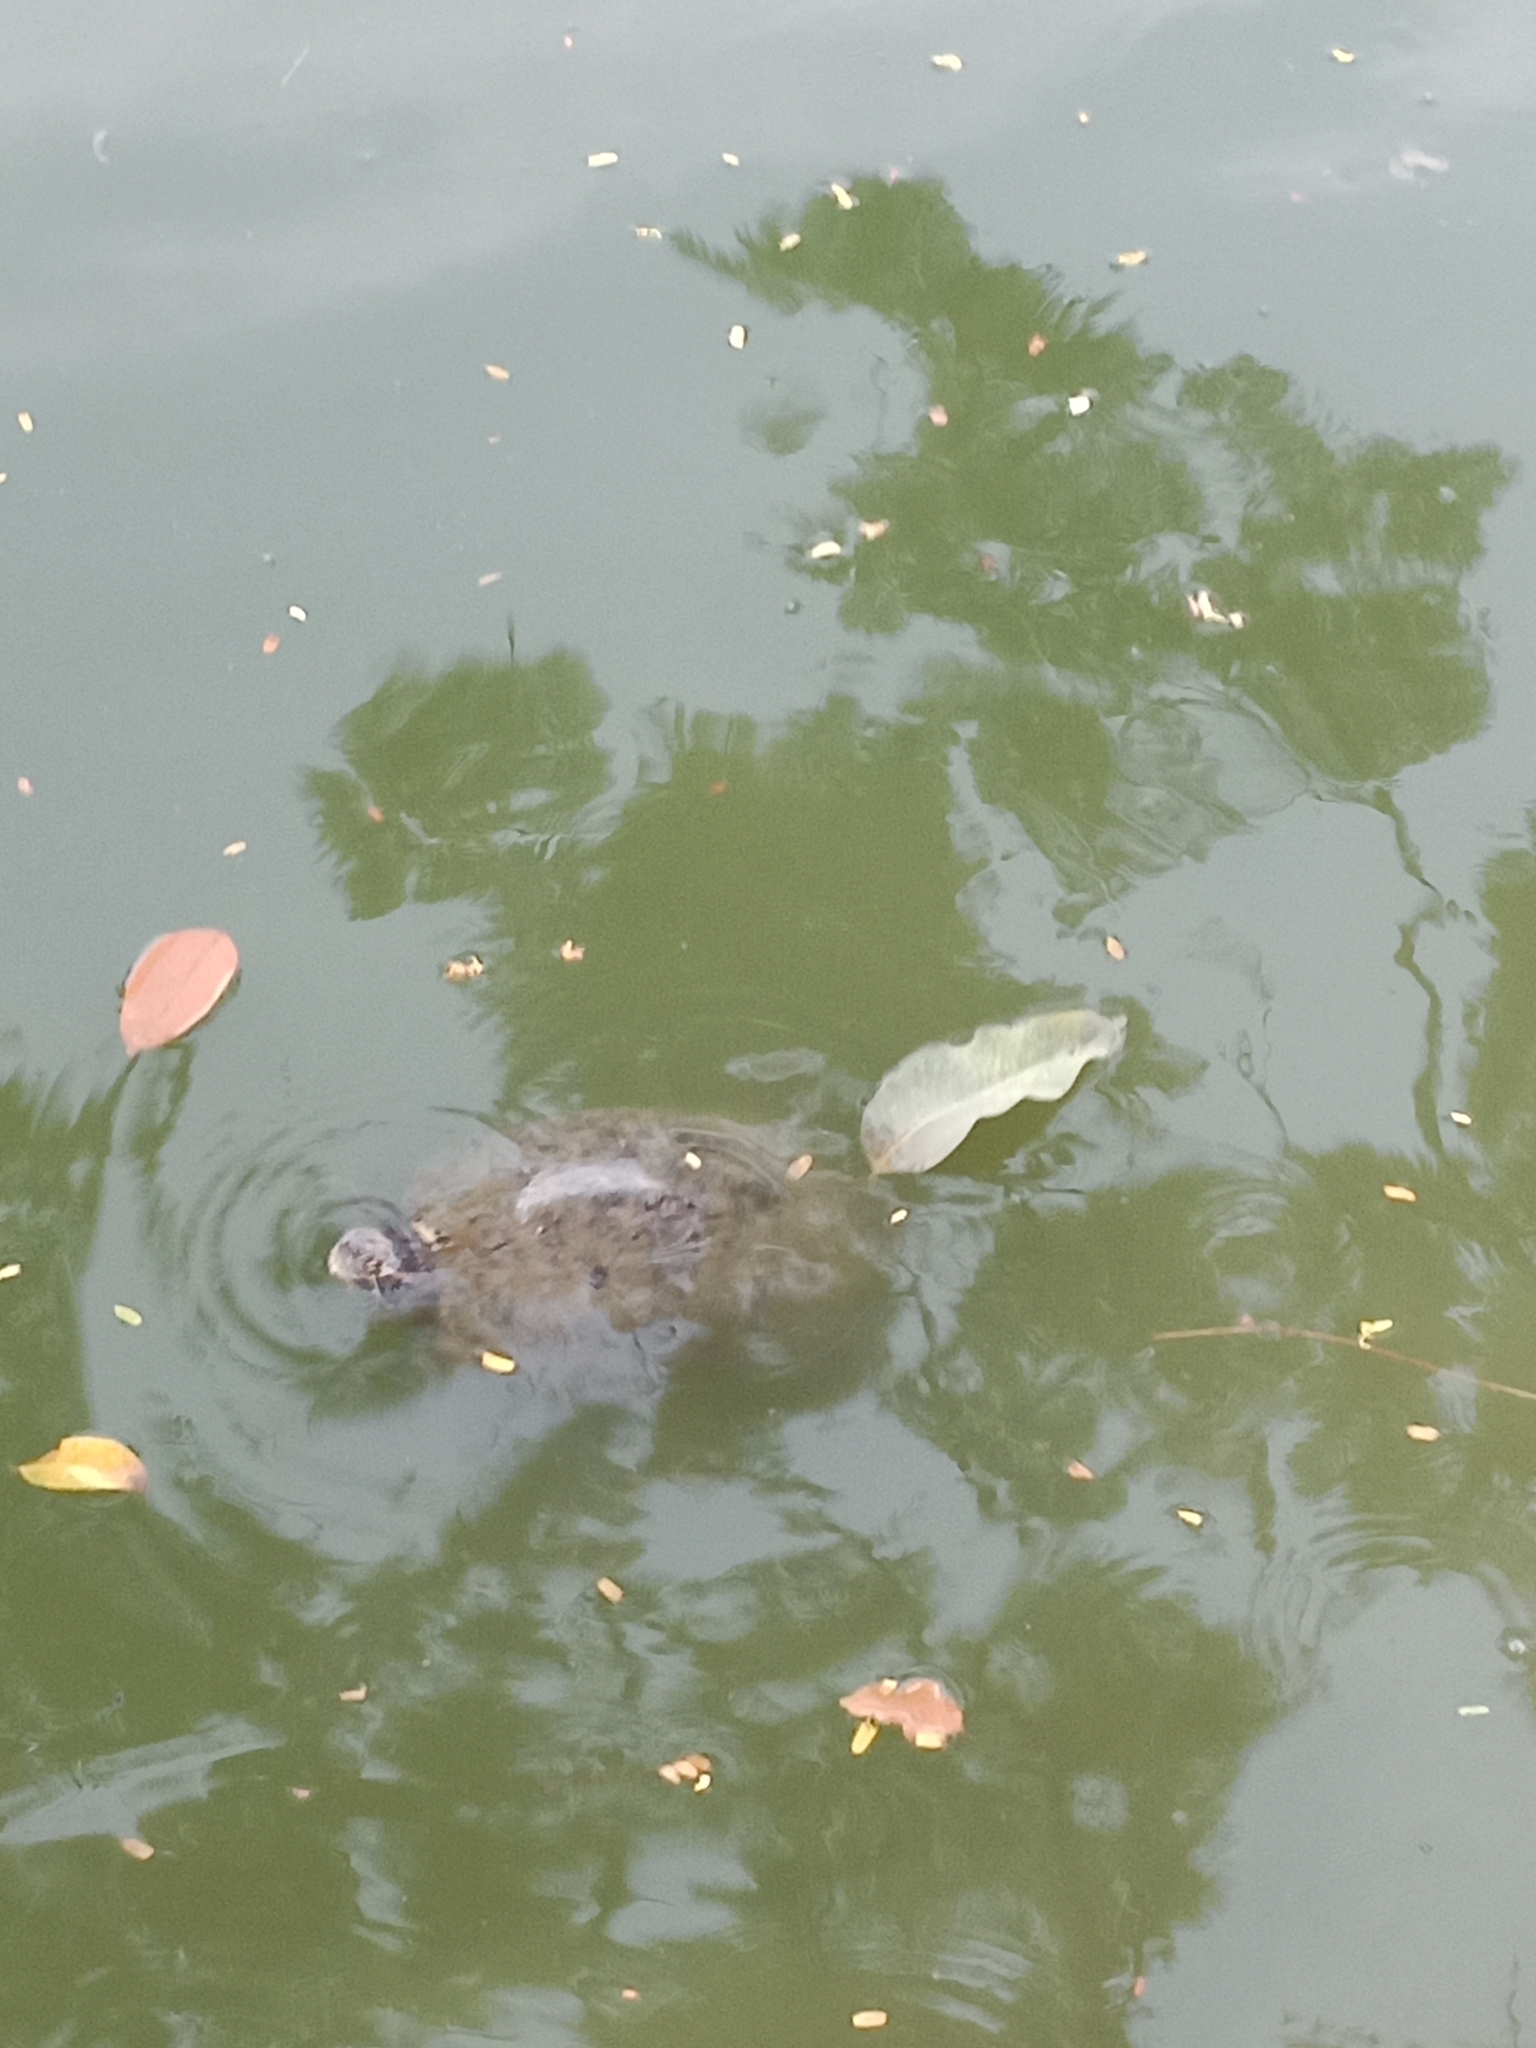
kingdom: Animalia
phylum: Chordata
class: Testudines
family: Emydidae
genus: Trachemys
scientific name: Trachemys scripta
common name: Slider
